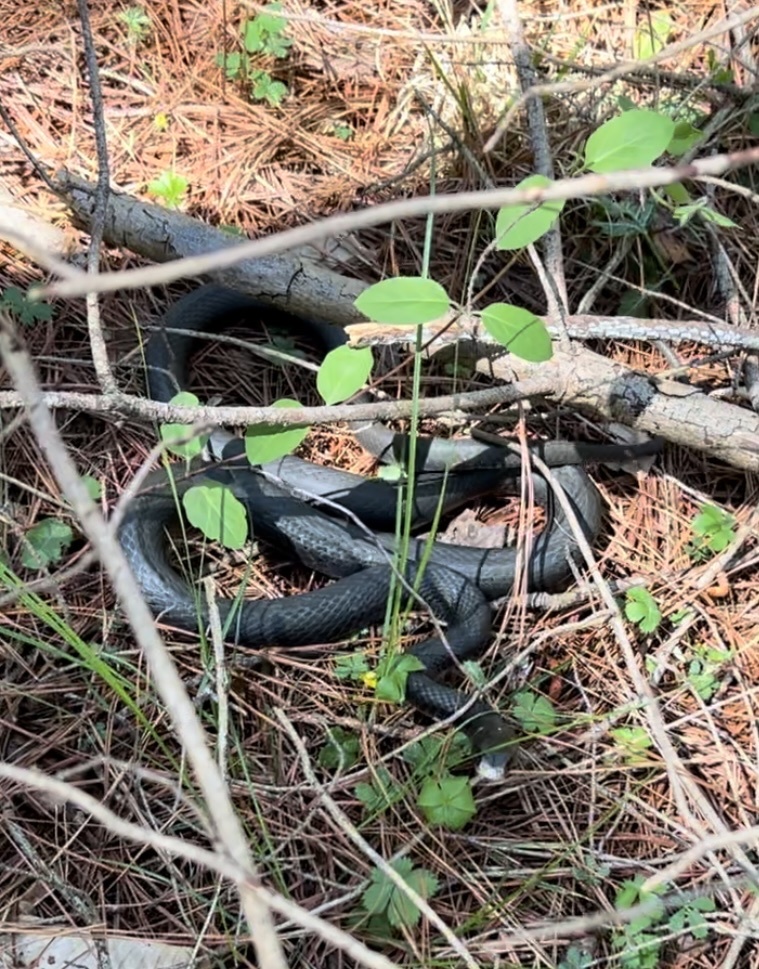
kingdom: Animalia
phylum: Chordata
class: Squamata
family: Colubridae
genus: Coluber
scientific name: Coluber constrictor
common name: Eastern racer
